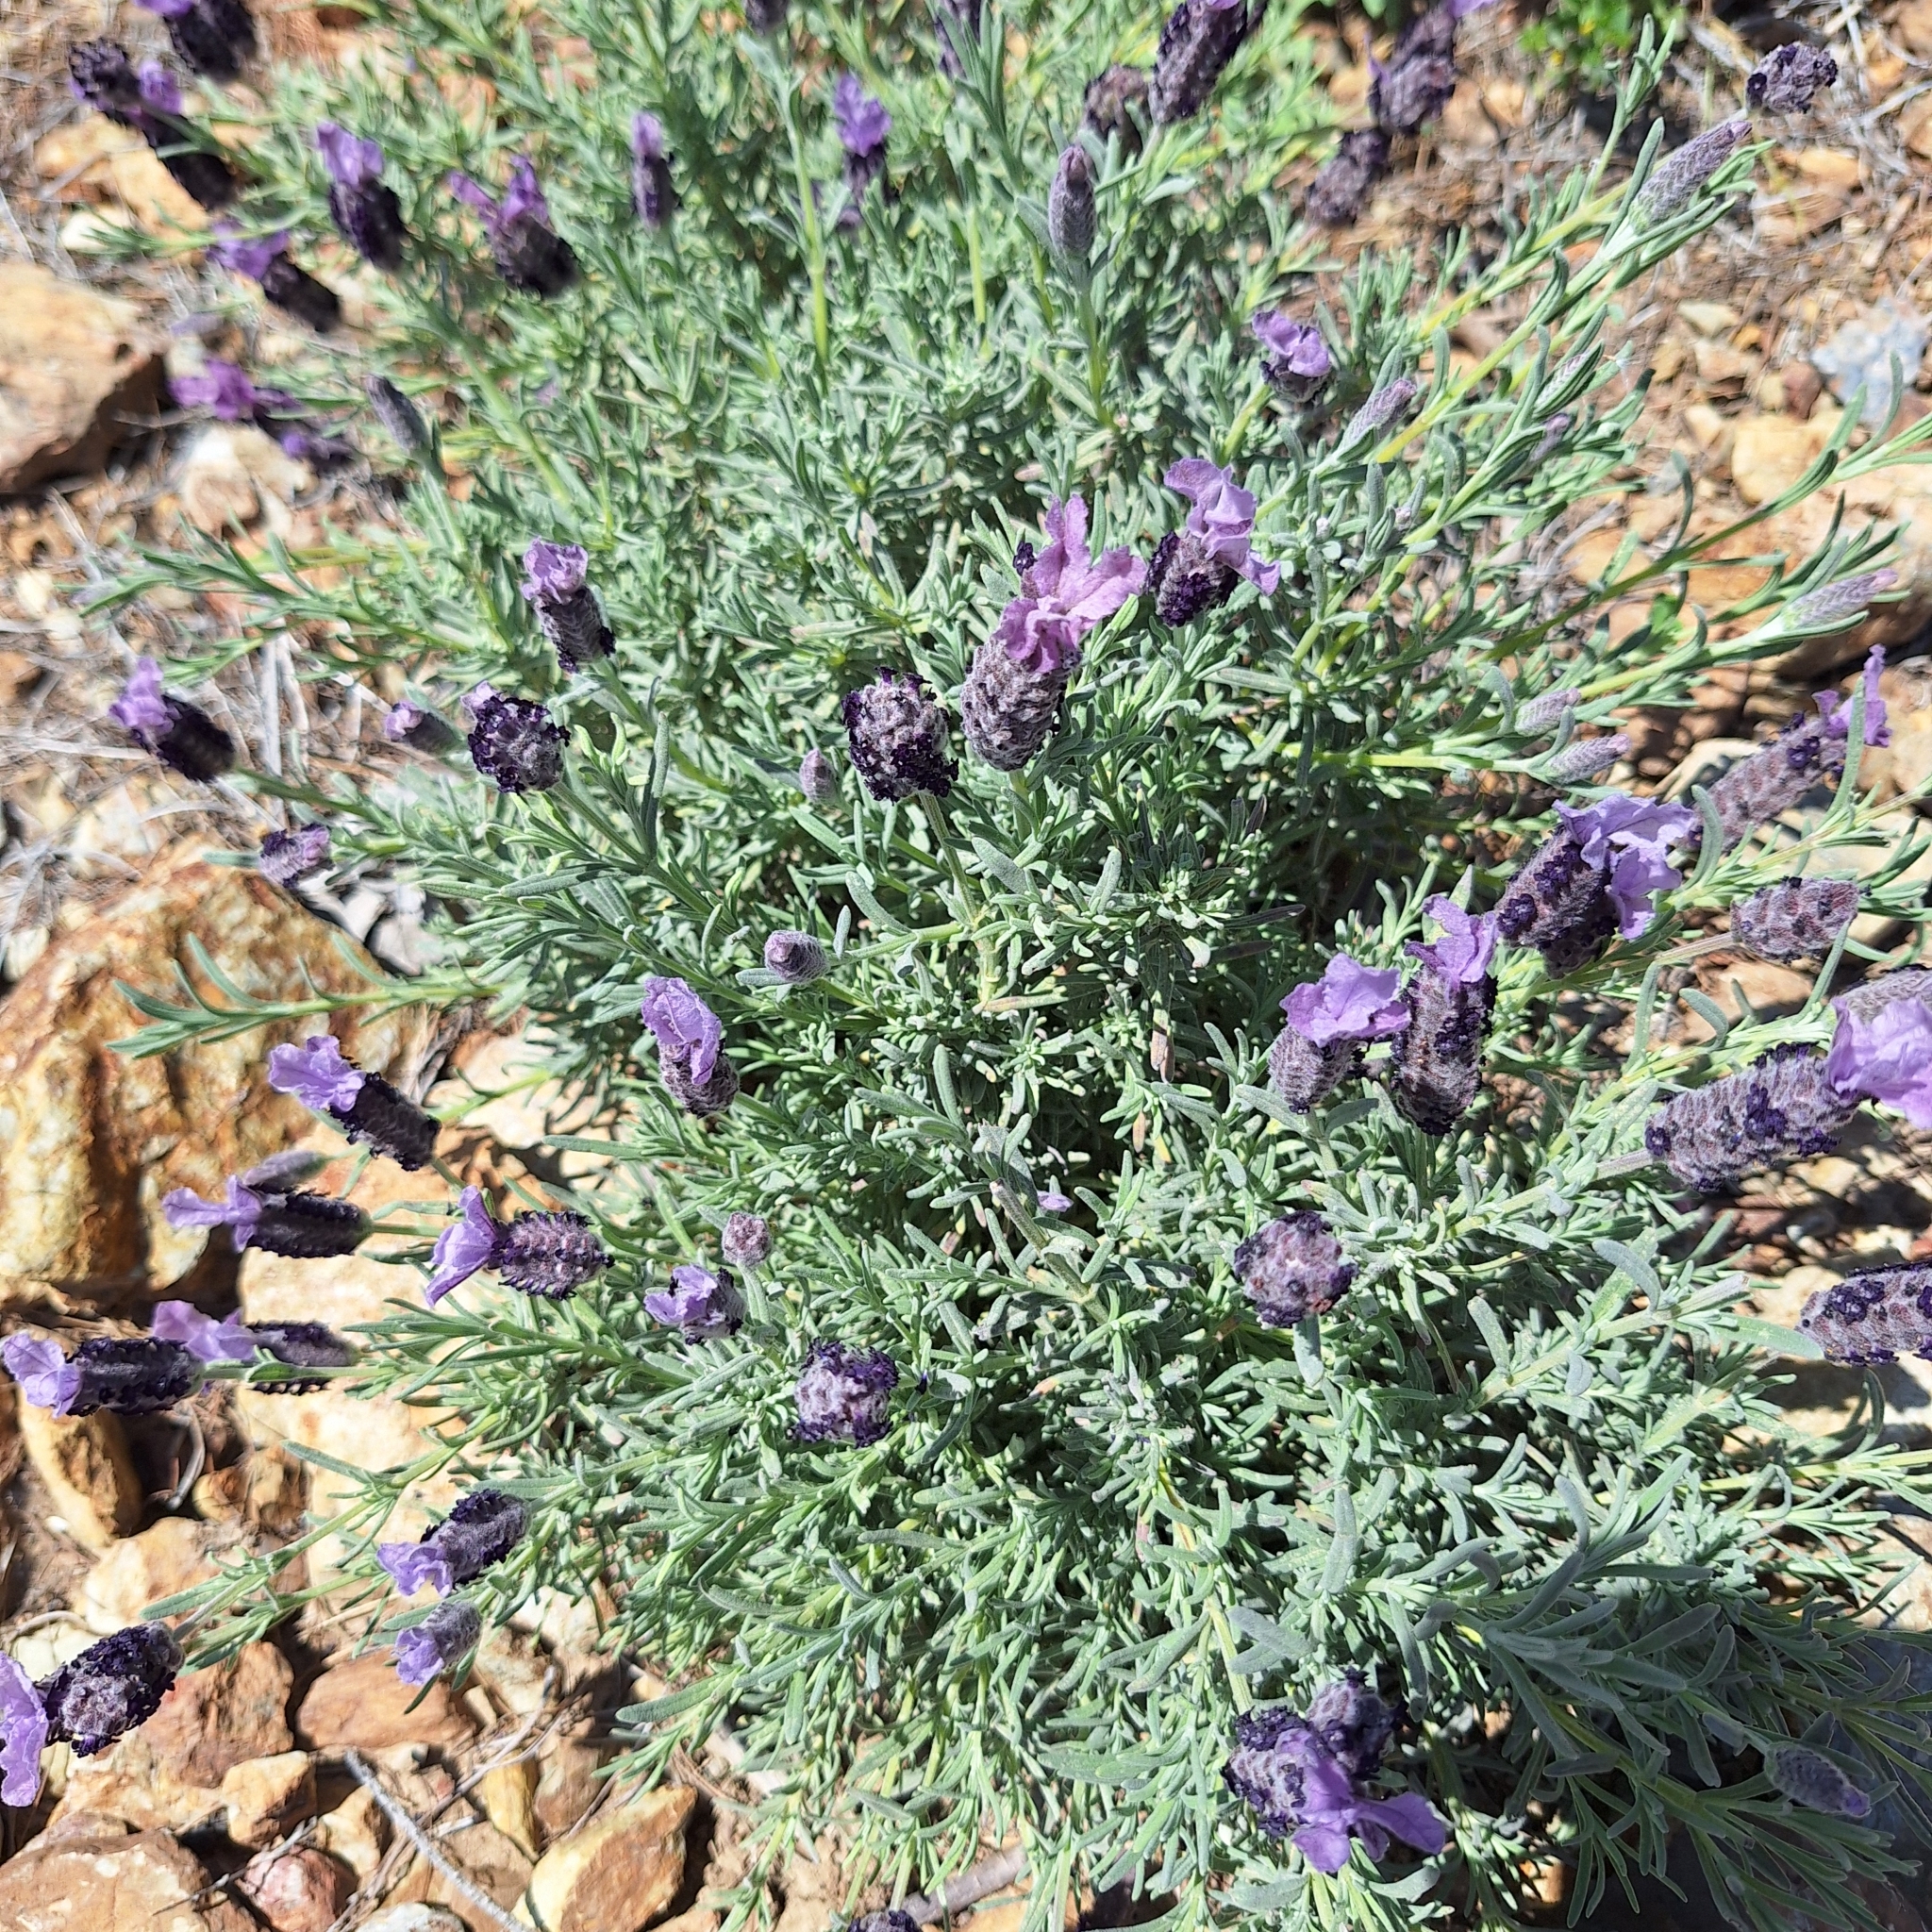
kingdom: Plantae
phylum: Tracheophyta
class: Magnoliopsida
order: Lamiales
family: Lamiaceae
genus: Lavandula
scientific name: Lavandula stoechas
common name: French lavender
